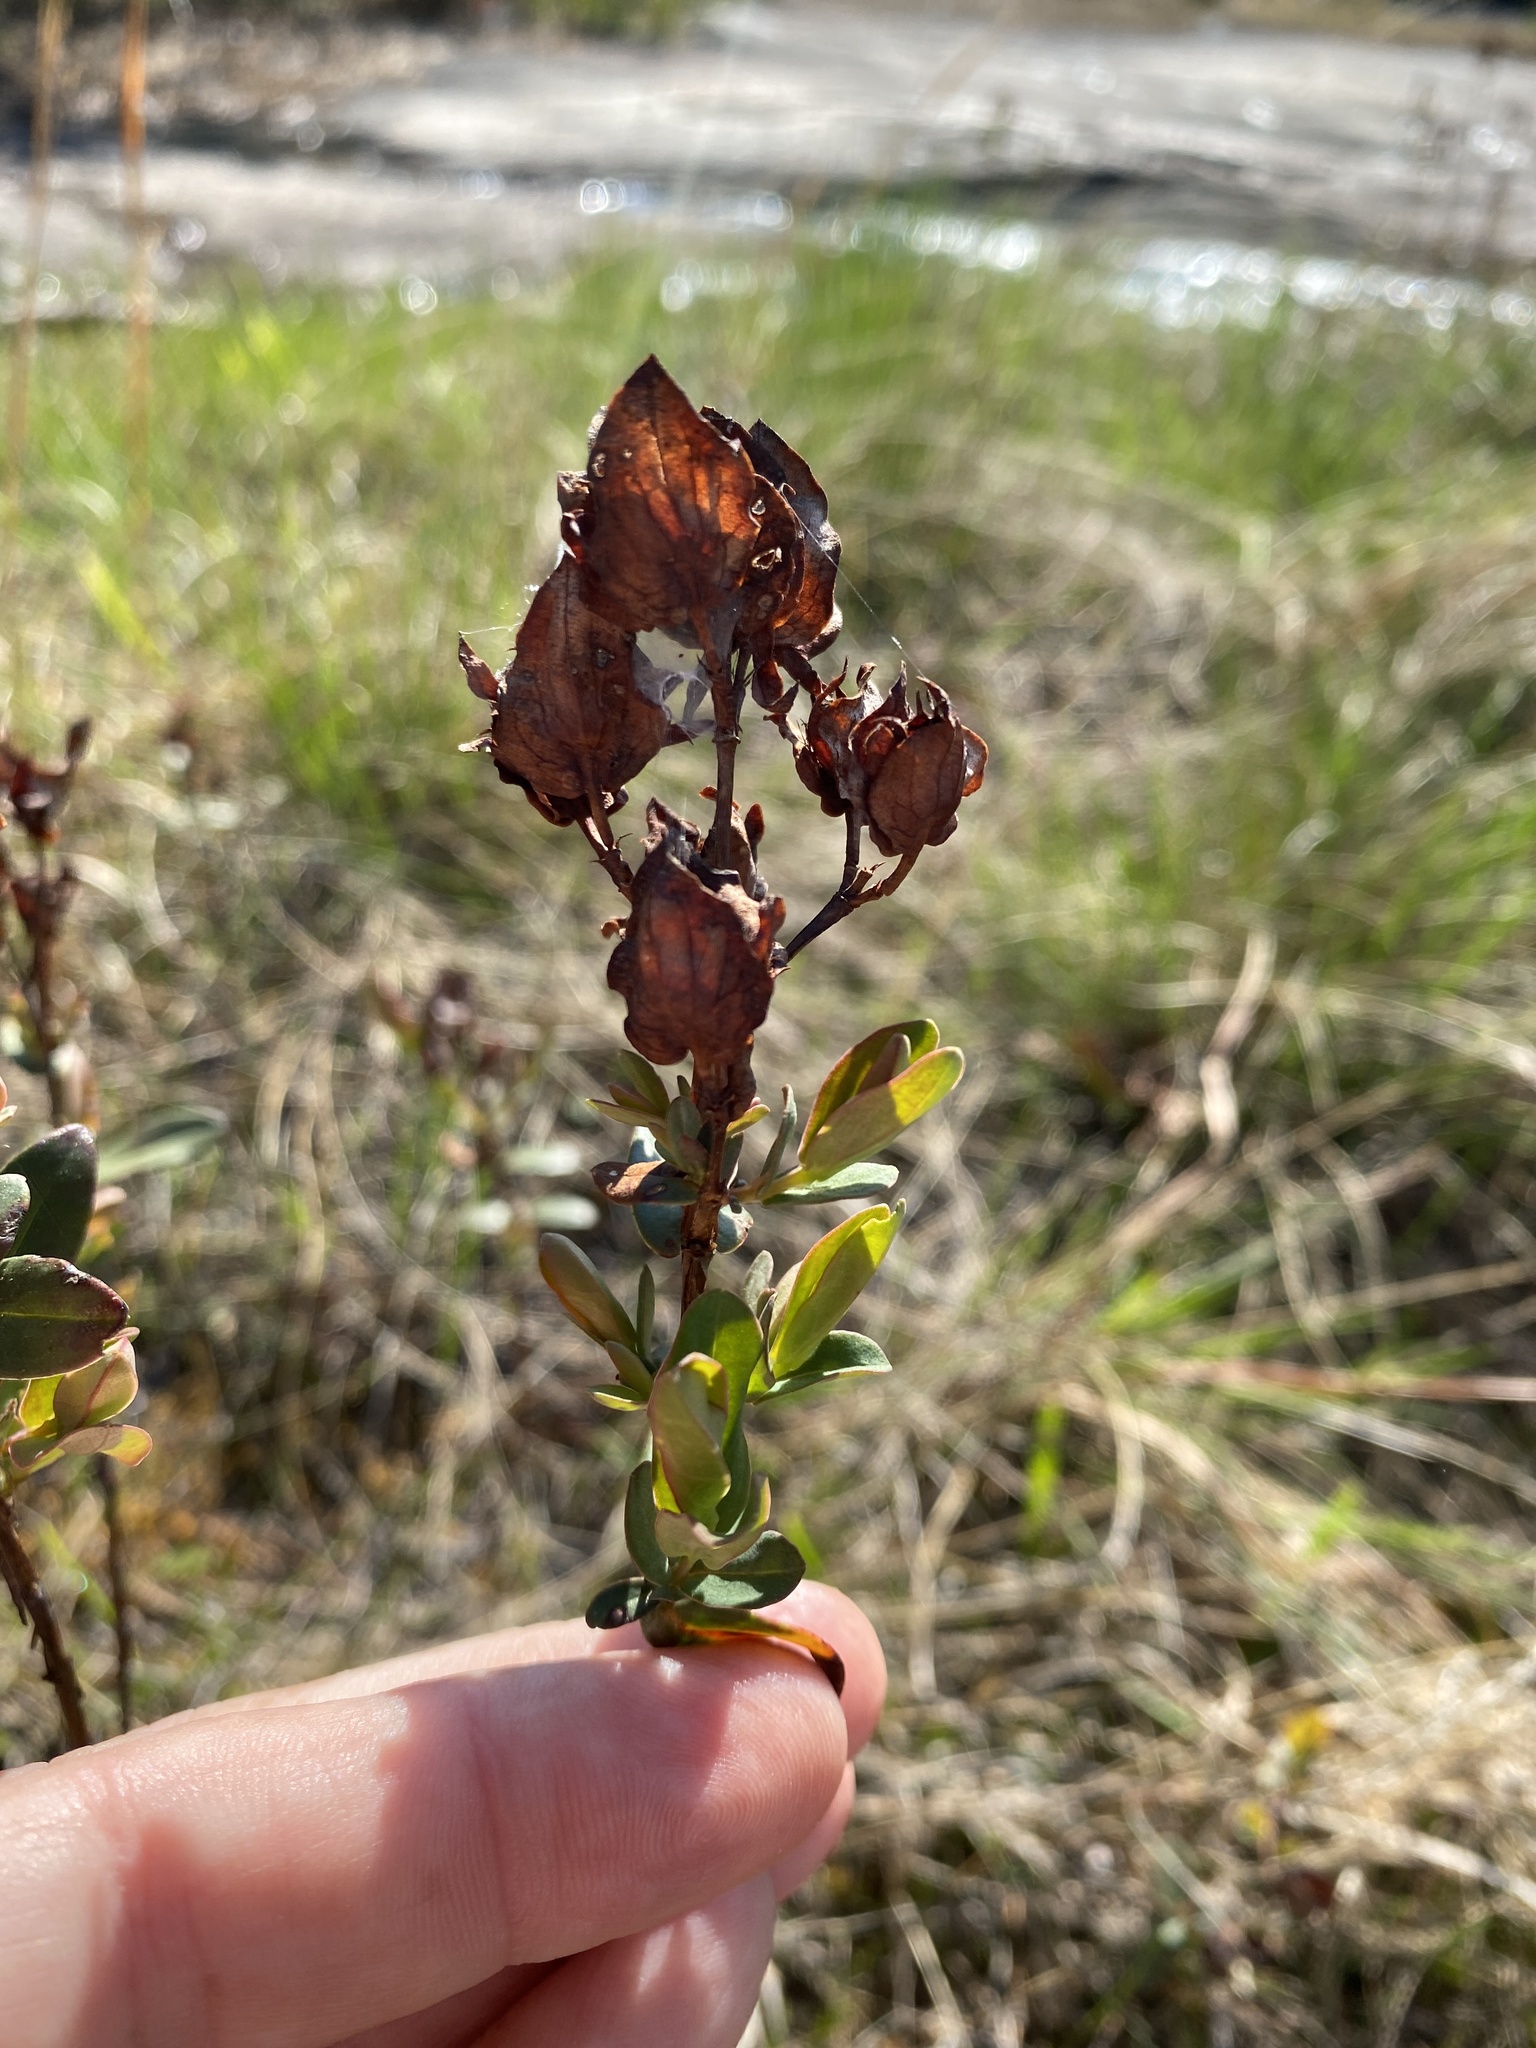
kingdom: Plantae
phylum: Tracheophyta
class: Magnoliopsida
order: Malpighiales
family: Hypericaceae
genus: Hypericum
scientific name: Hypericum crux-andreae
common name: St.-peter's-wort
